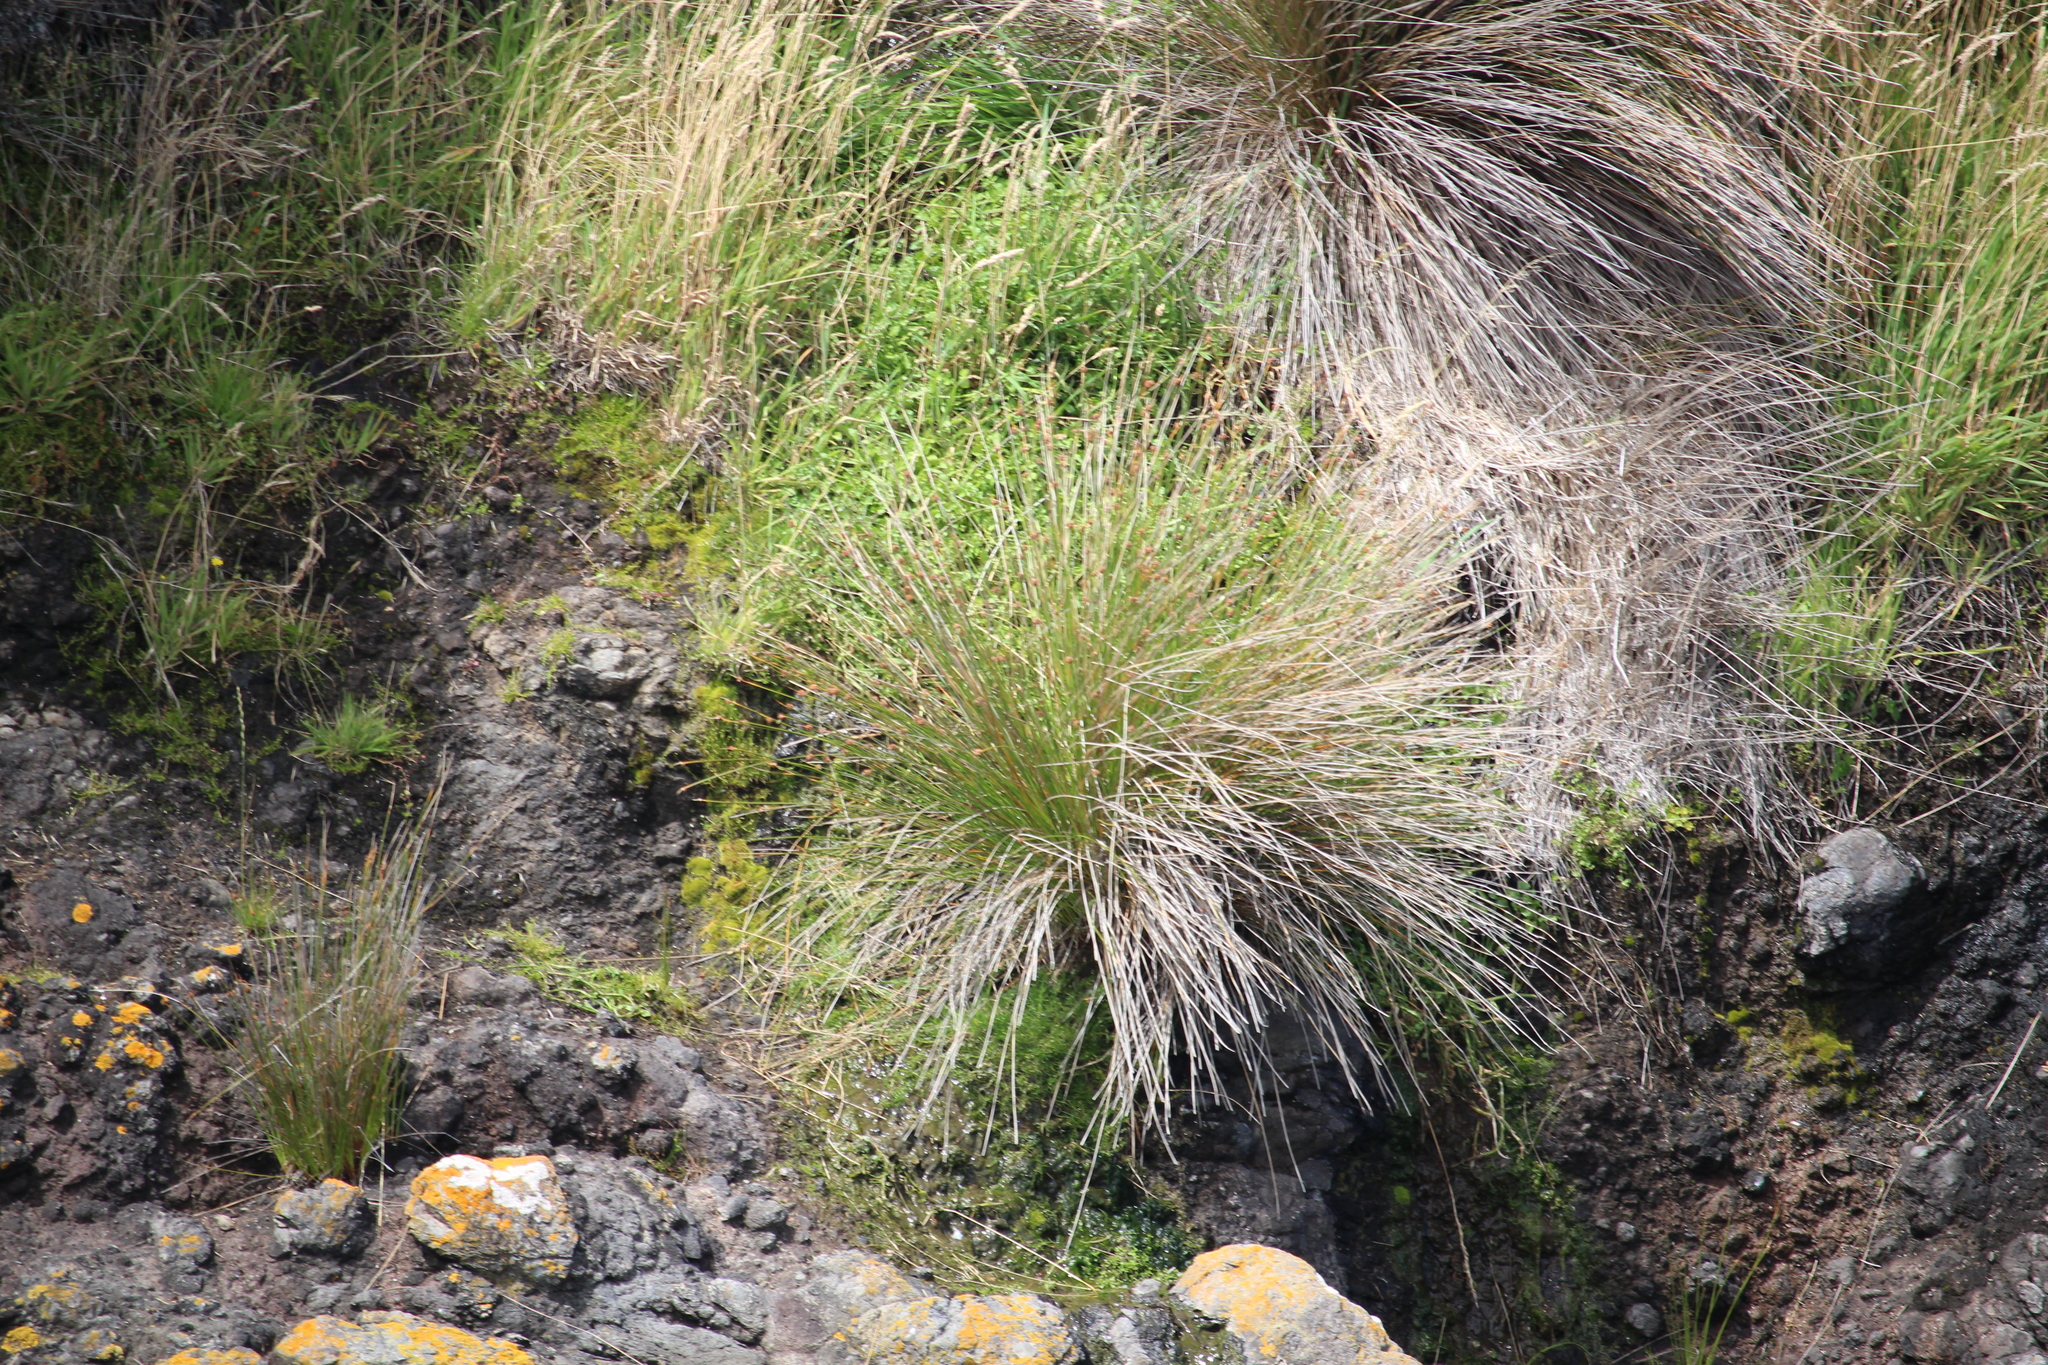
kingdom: Plantae
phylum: Tracheophyta
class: Liliopsida
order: Poales
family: Cyperaceae
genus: Ficinia
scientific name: Ficinia nodosa
